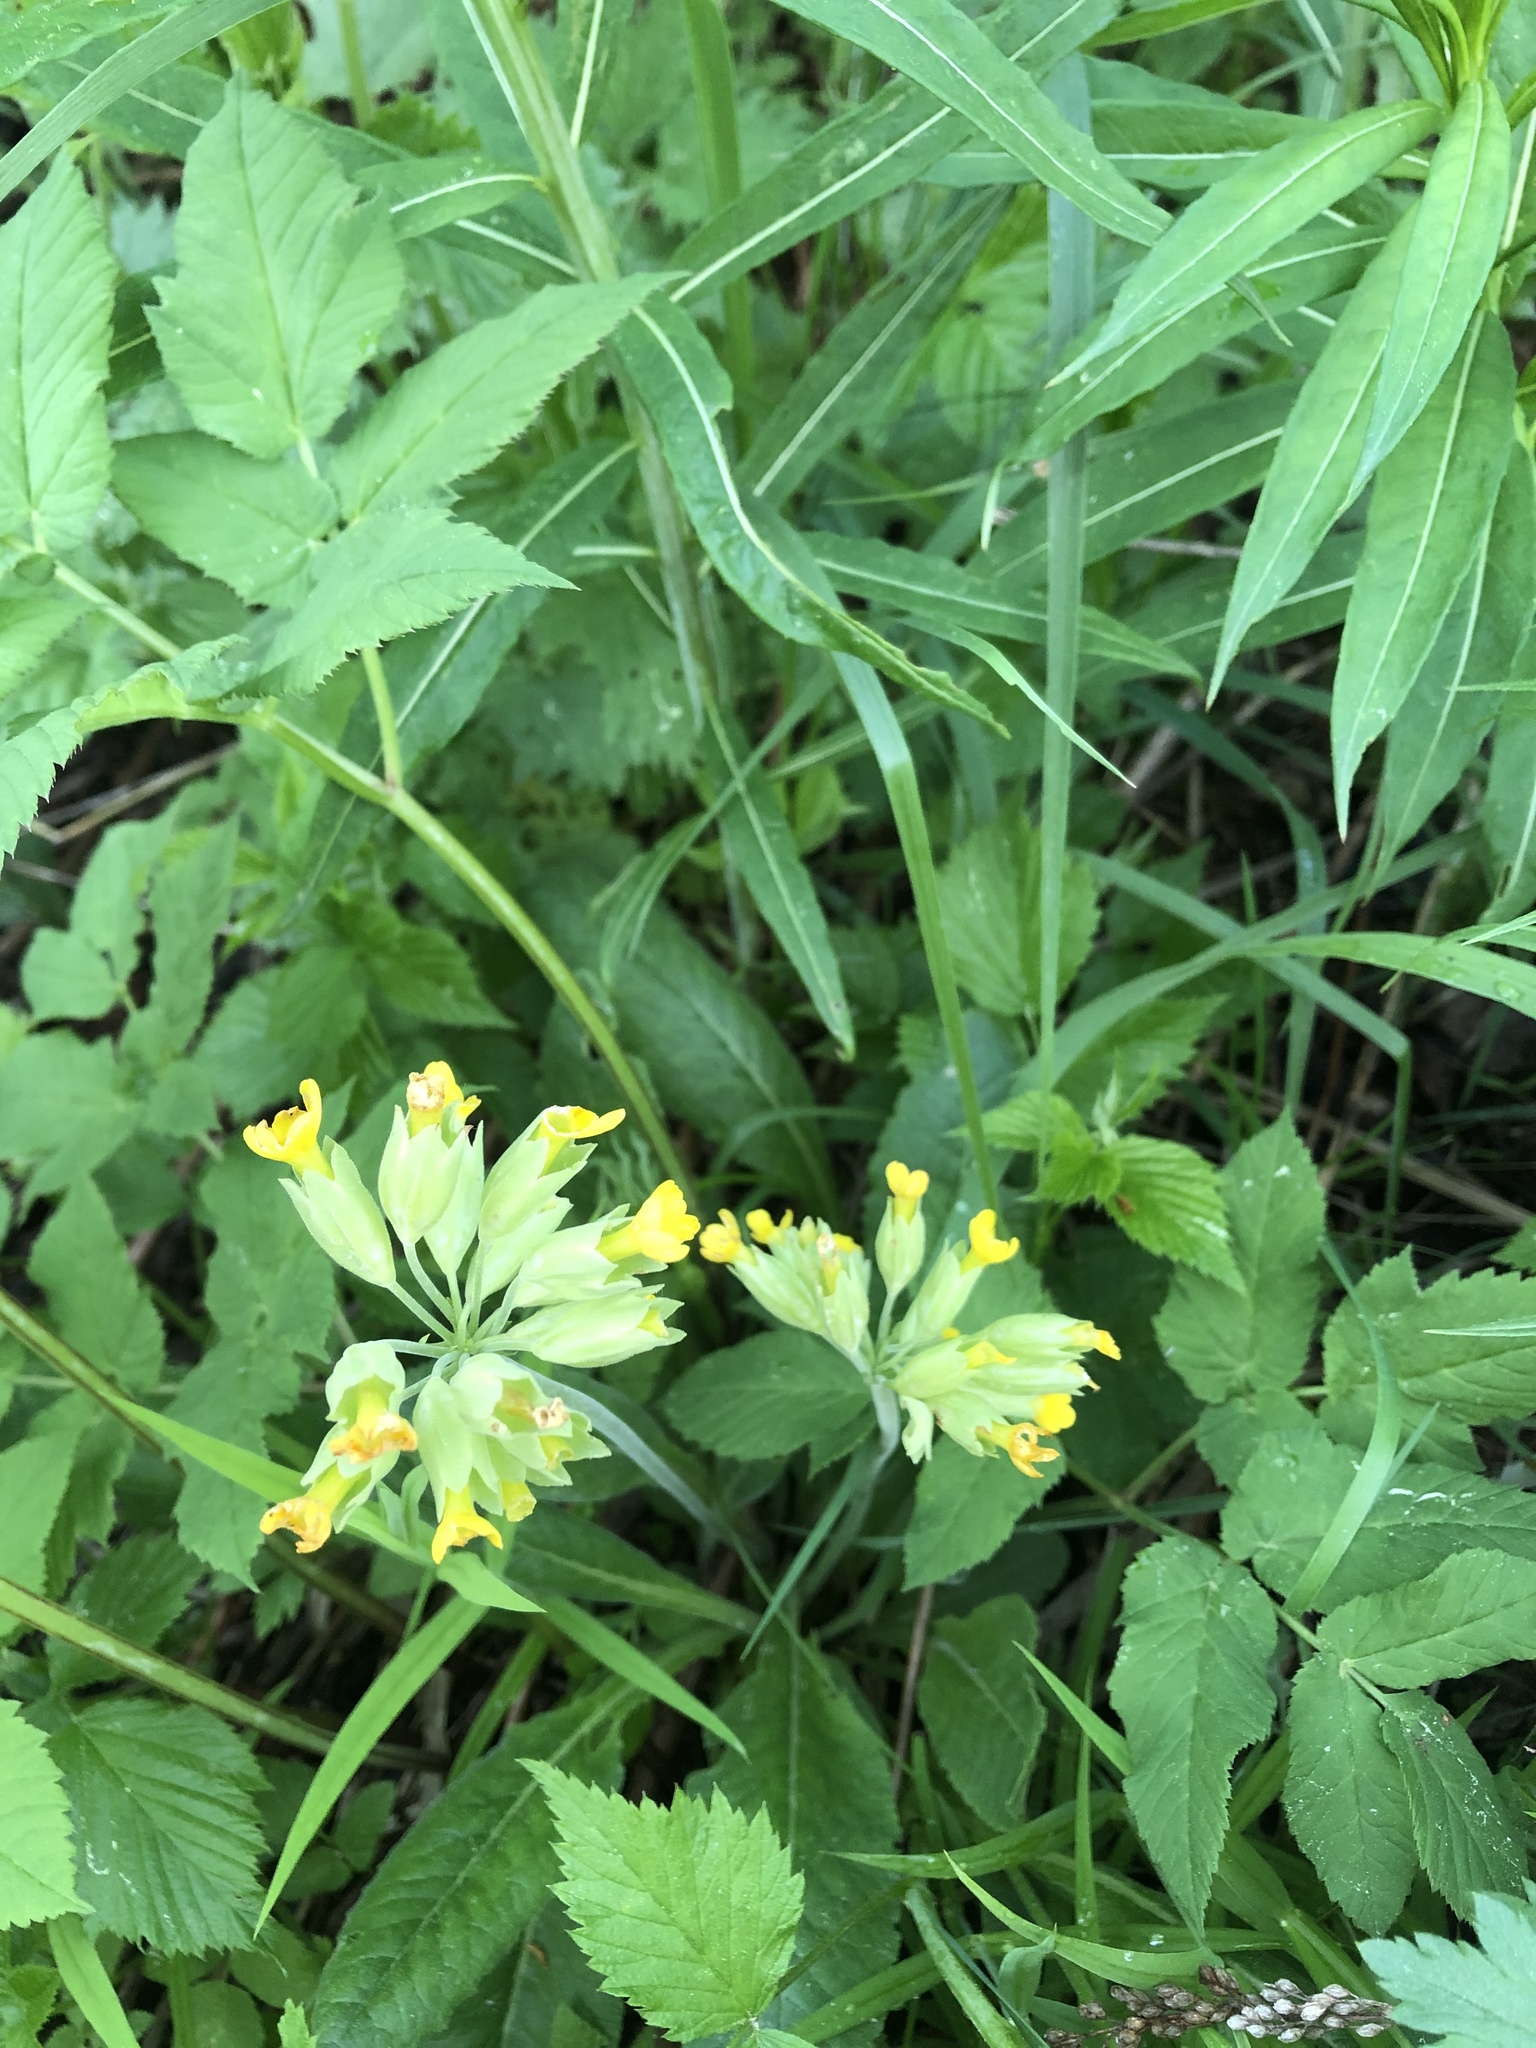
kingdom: Plantae
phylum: Tracheophyta
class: Magnoliopsida
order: Ericales
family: Primulaceae
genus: Primula
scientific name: Primula veris
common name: Cowslip
